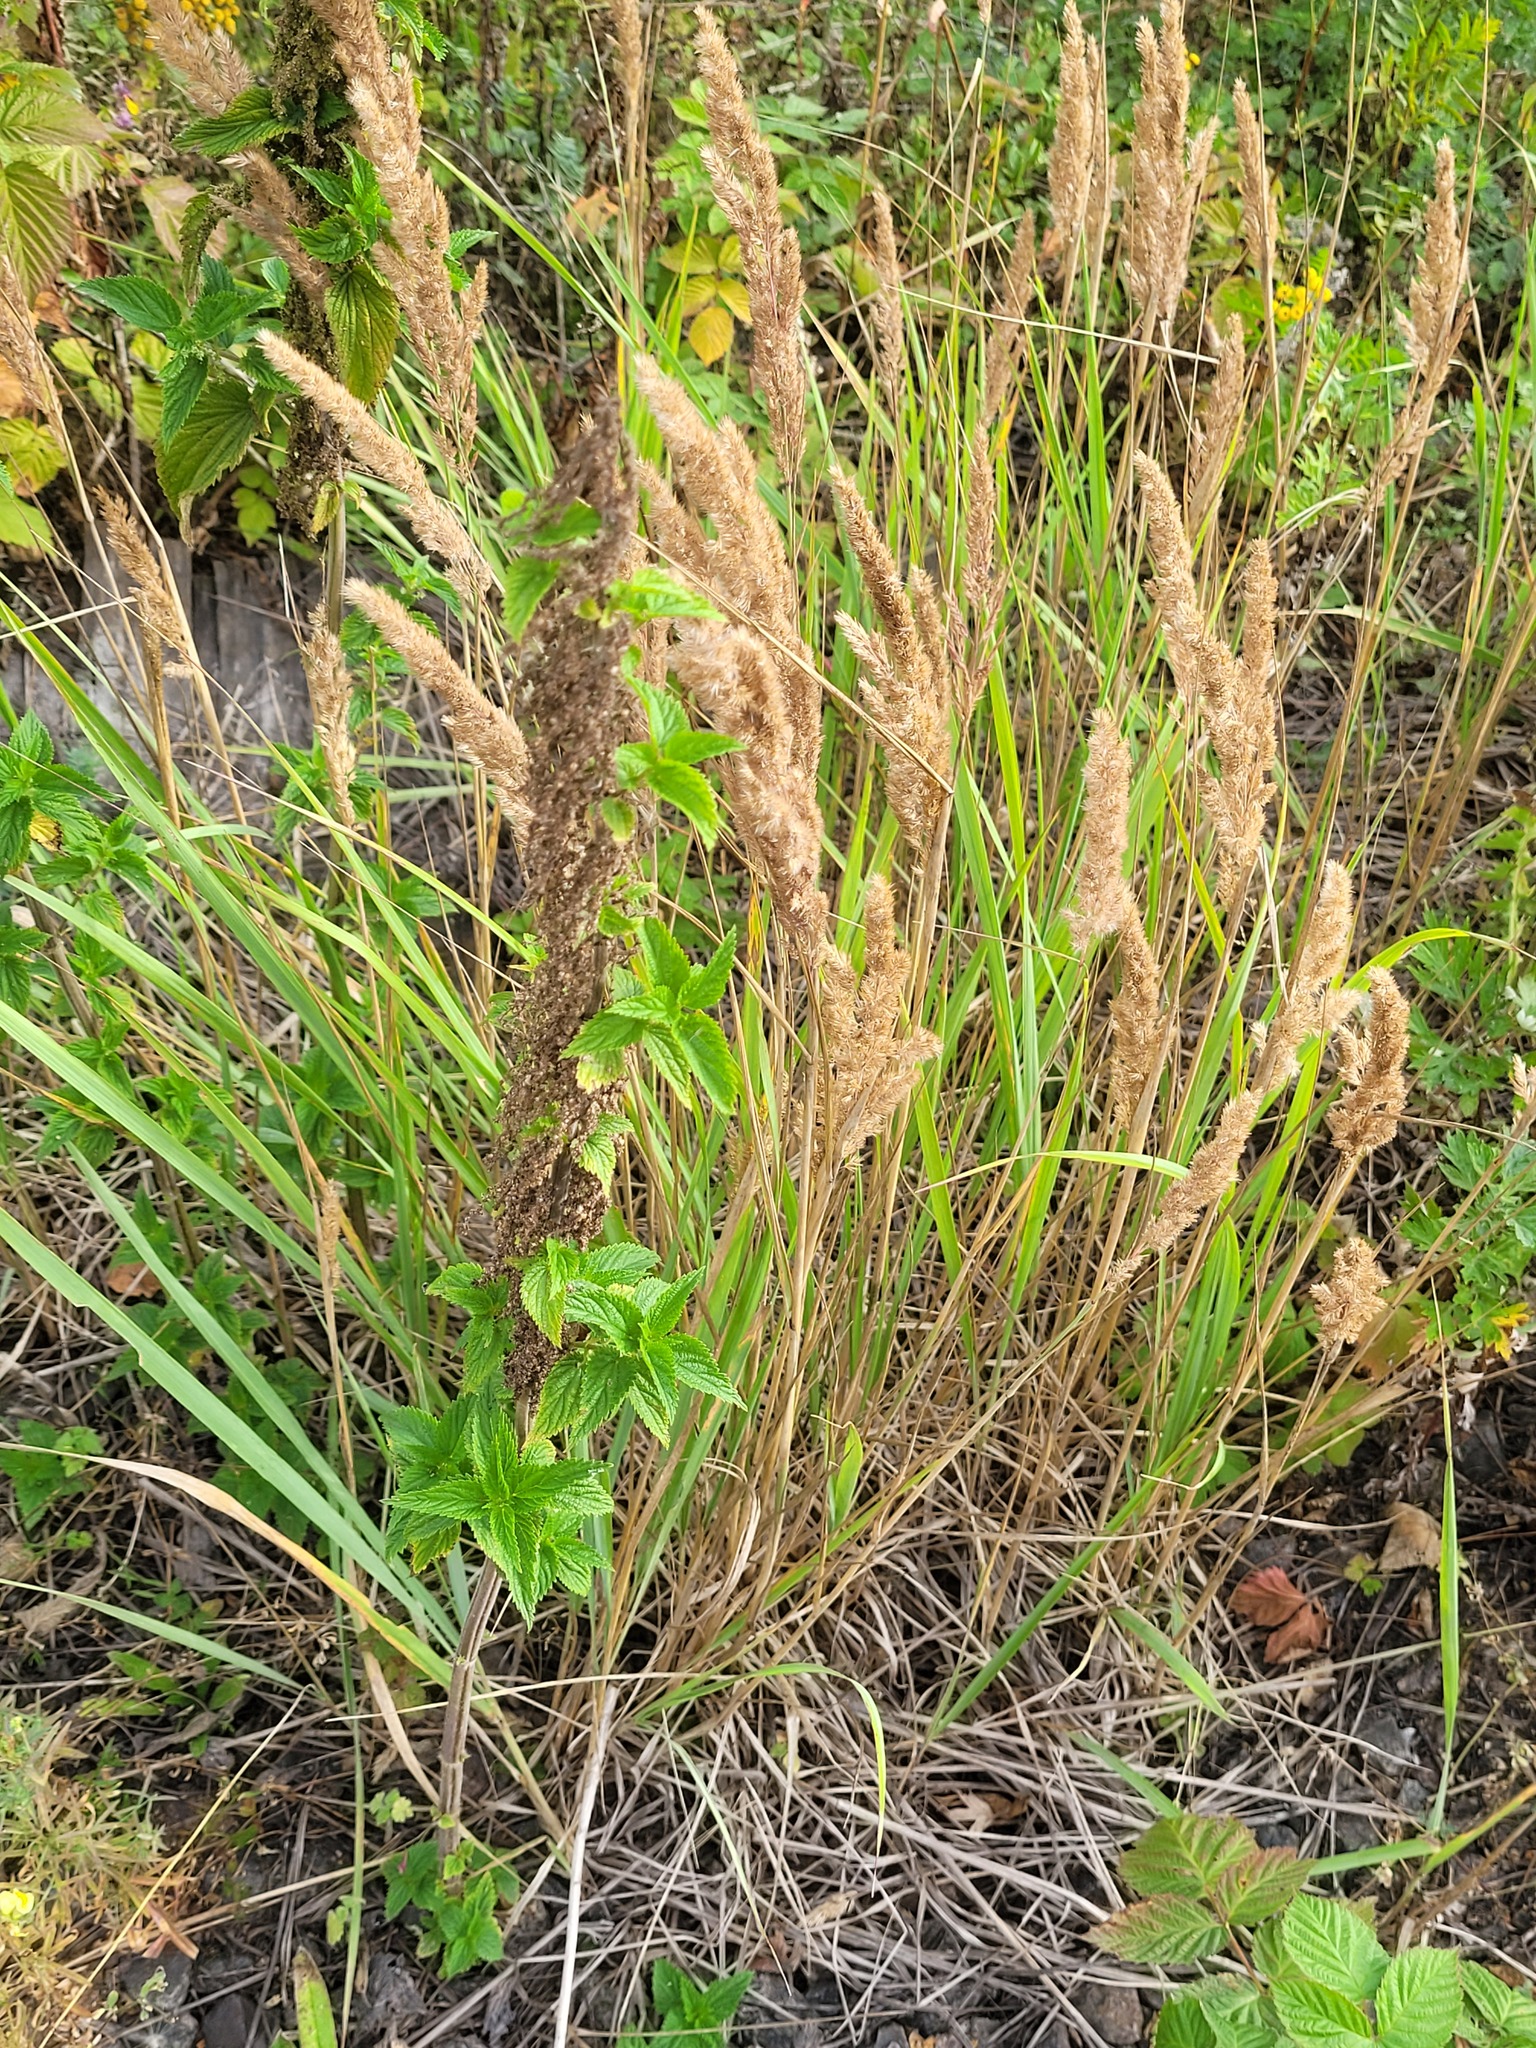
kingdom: Plantae
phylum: Tracheophyta
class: Magnoliopsida
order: Rosales
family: Urticaceae
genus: Urtica
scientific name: Urtica dioica
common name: Common nettle
